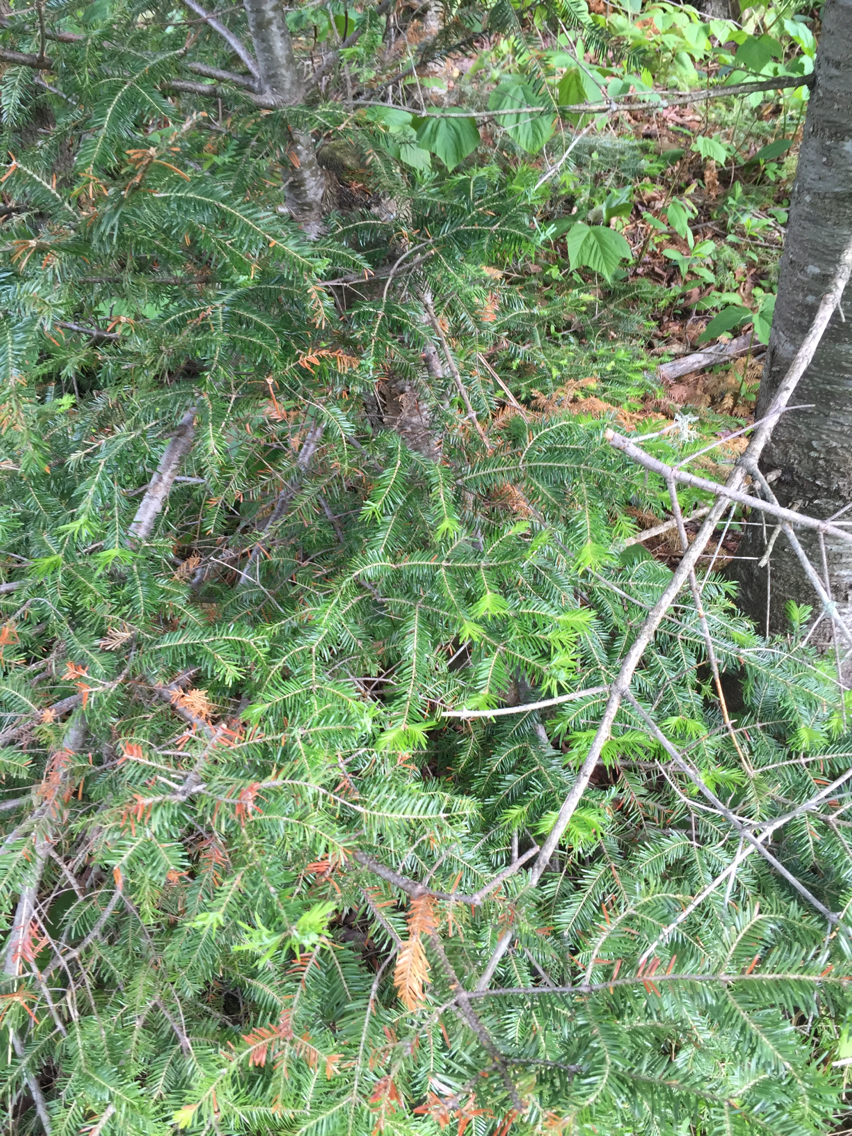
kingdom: Plantae
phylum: Tracheophyta
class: Pinopsida
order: Pinales
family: Pinaceae
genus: Abies
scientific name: Abies balsamea
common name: Balsam fir
